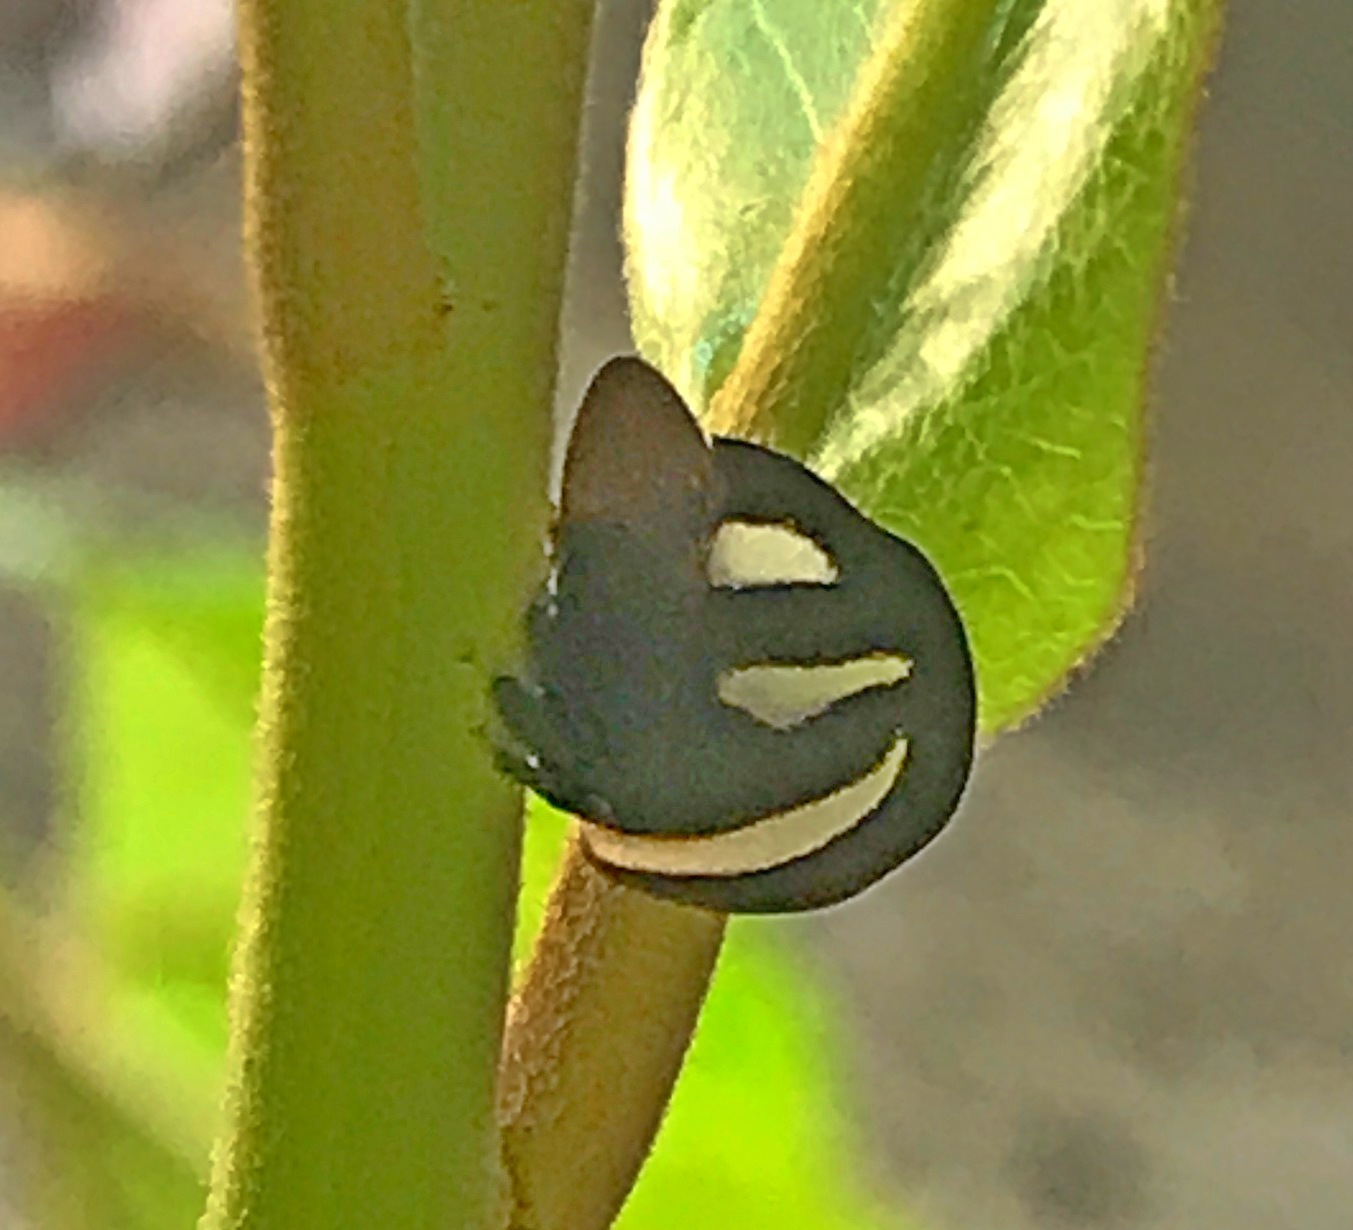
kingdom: Animalia
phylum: Arthropoda
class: Insecta
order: Hemiptera
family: Membracidae
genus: Membracis
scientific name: Membracis
